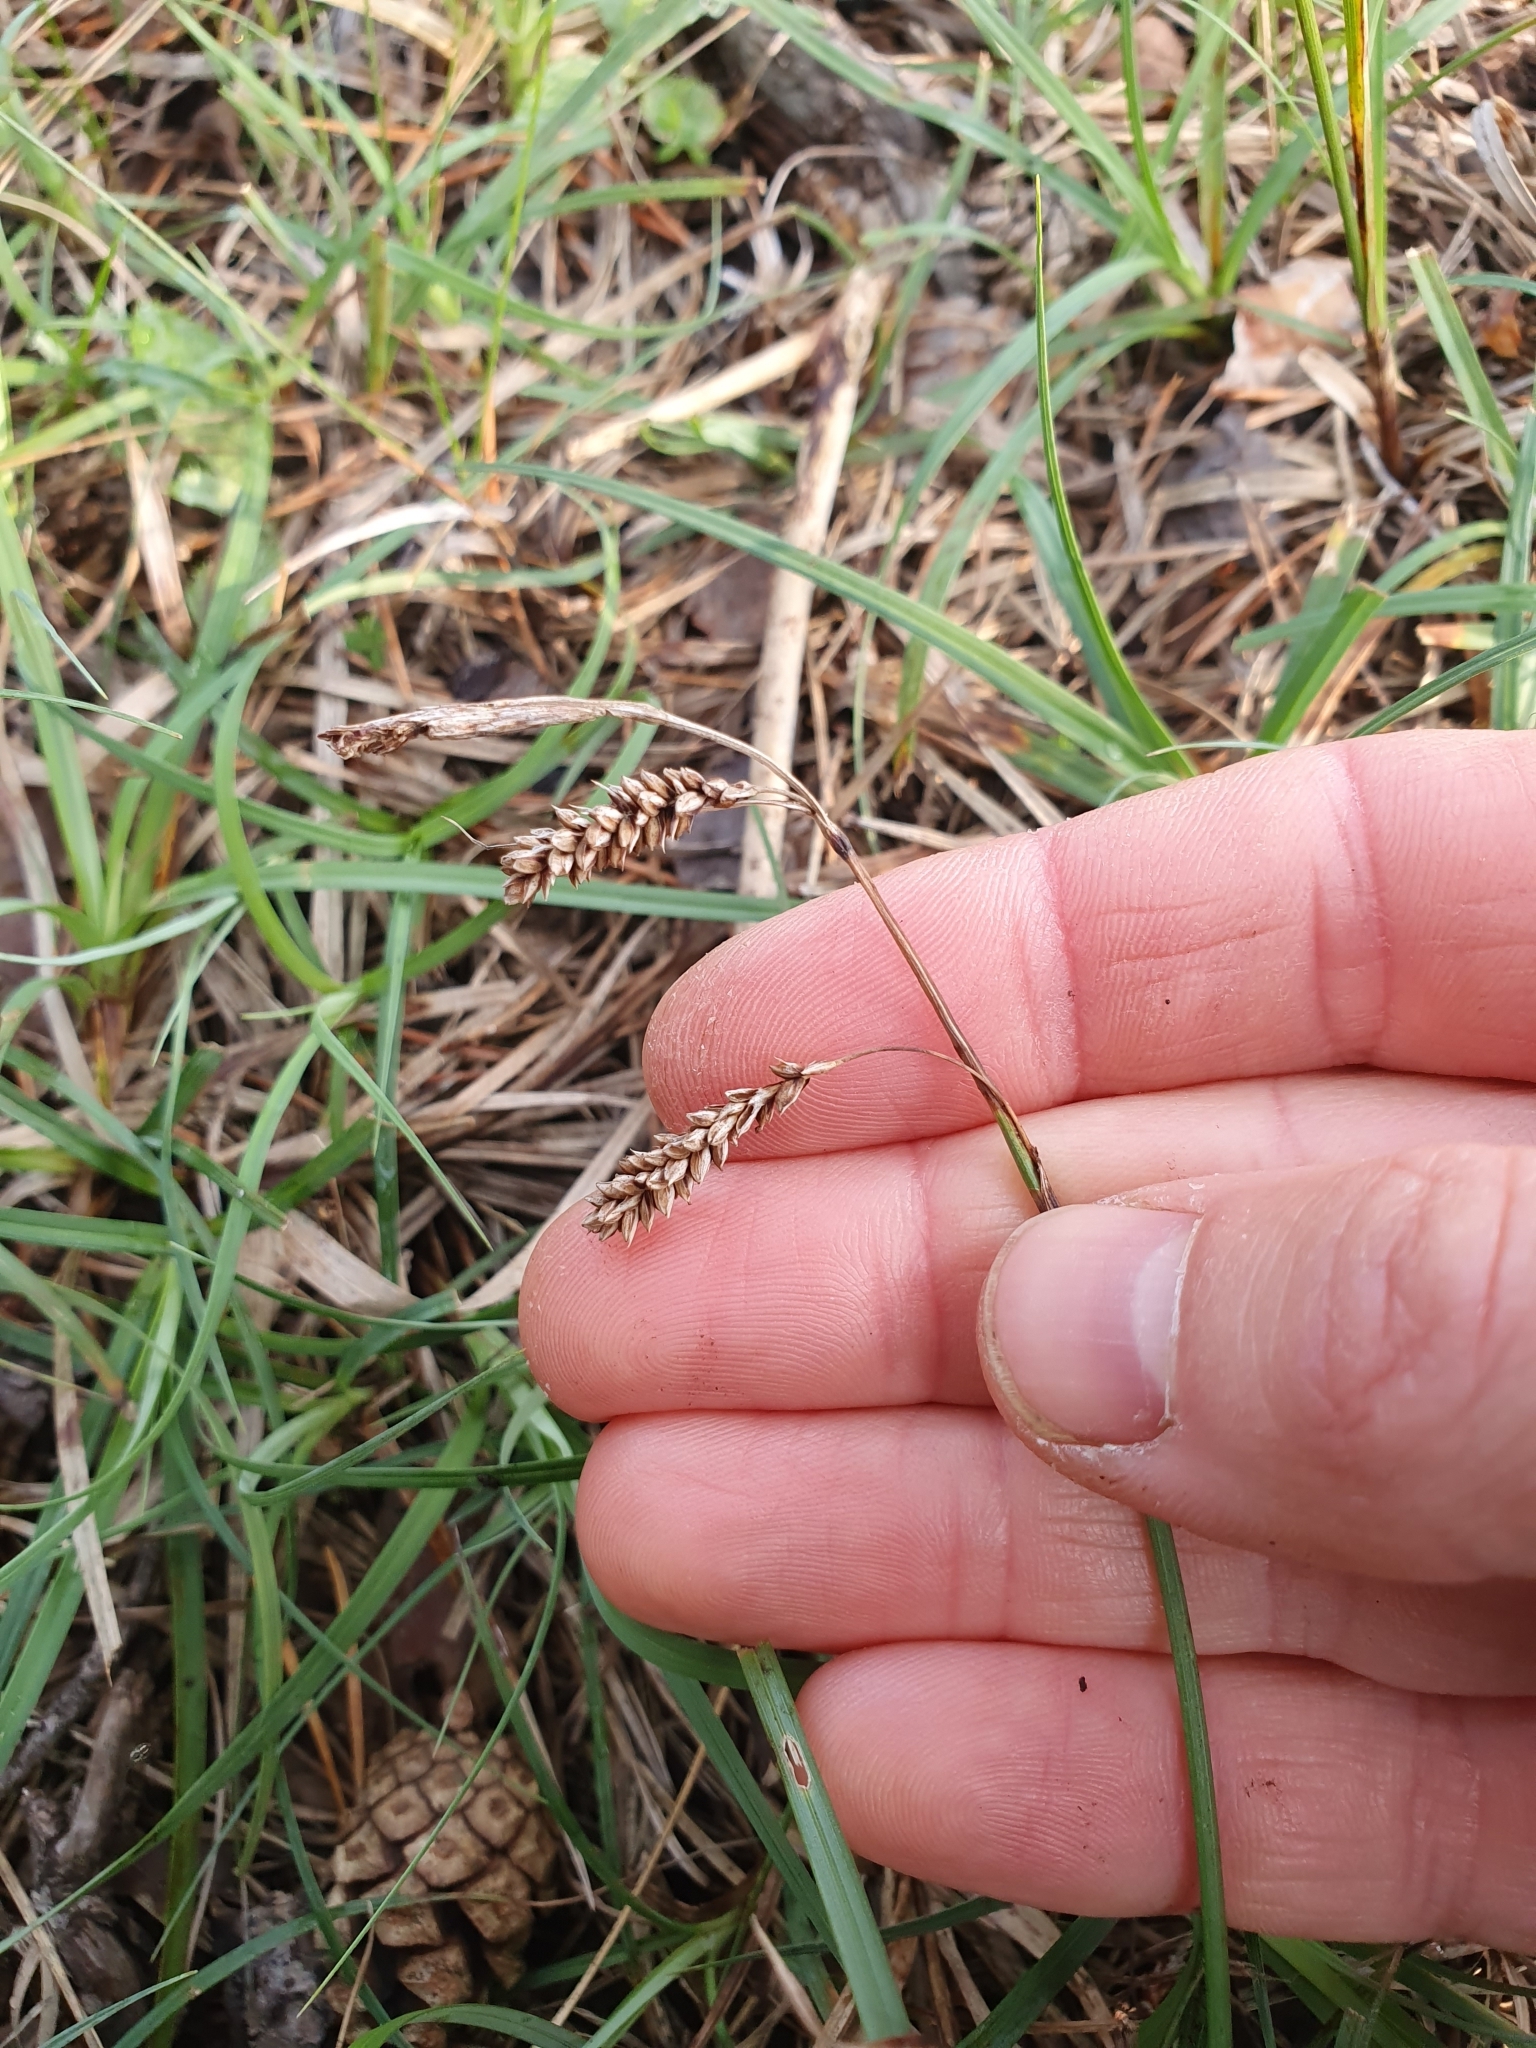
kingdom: Plantae
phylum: Tracheophyta
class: Liliopsida
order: Poales
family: Cyperaceae
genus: Carex
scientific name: Carex flacca
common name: Glaucous sedge
